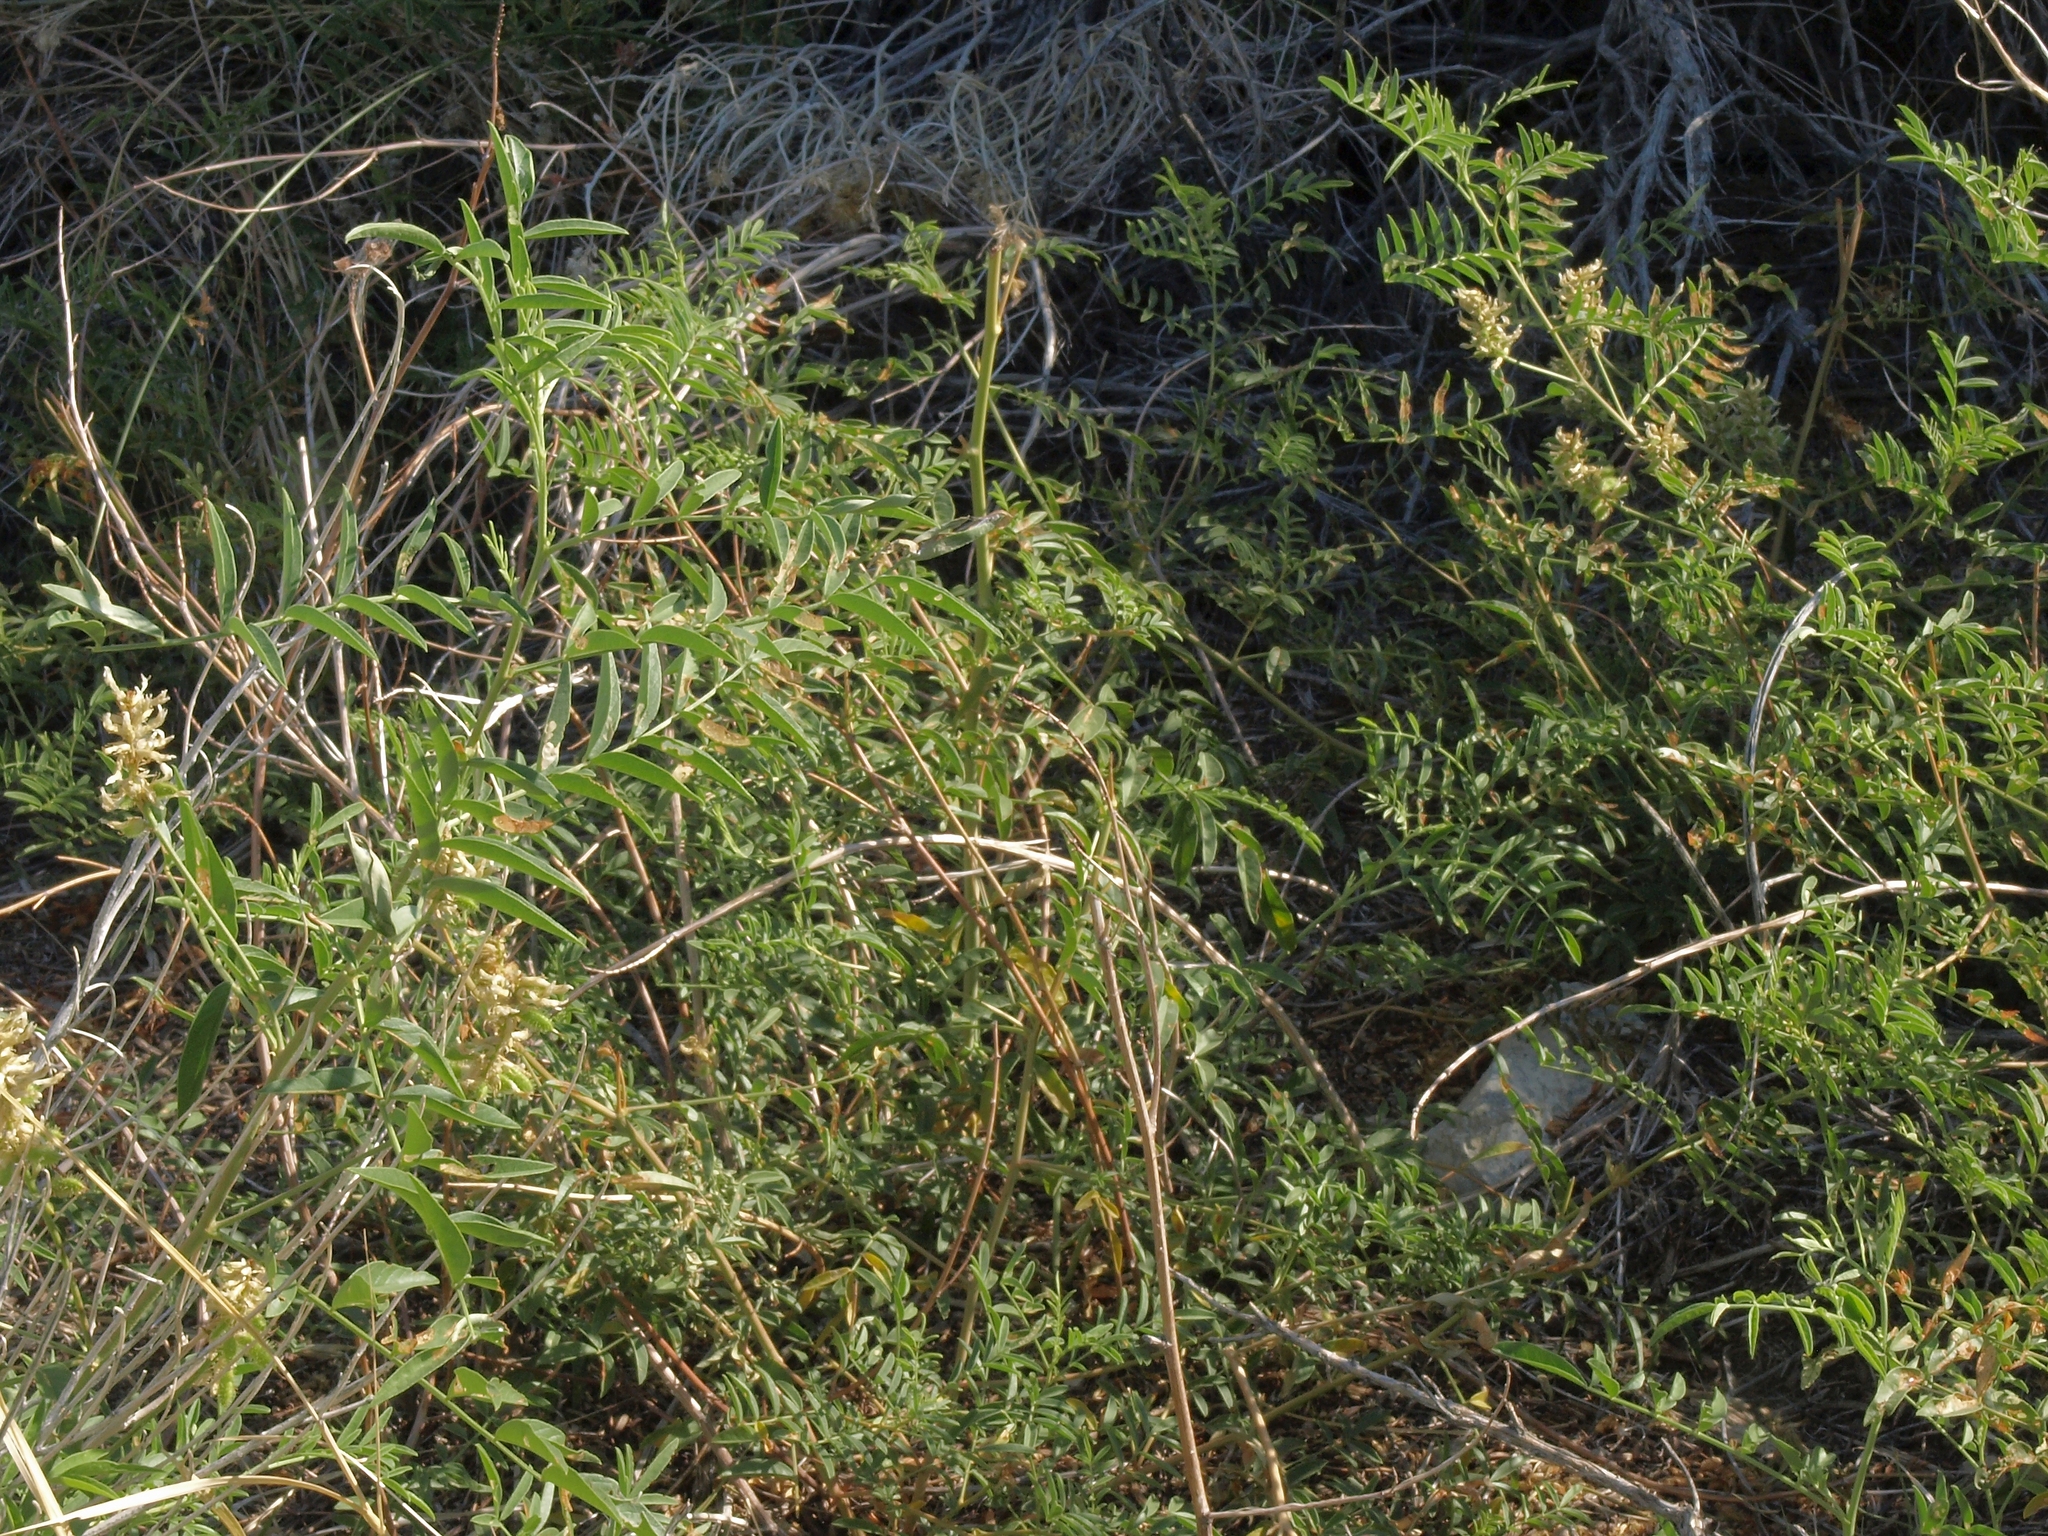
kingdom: Plantae
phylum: Tracheophyta
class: Magnoliopsida
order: Fabales
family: Fabaceae
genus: Glycyrrhiza
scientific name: Glycyrrhiza lepidota
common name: American liquorice
